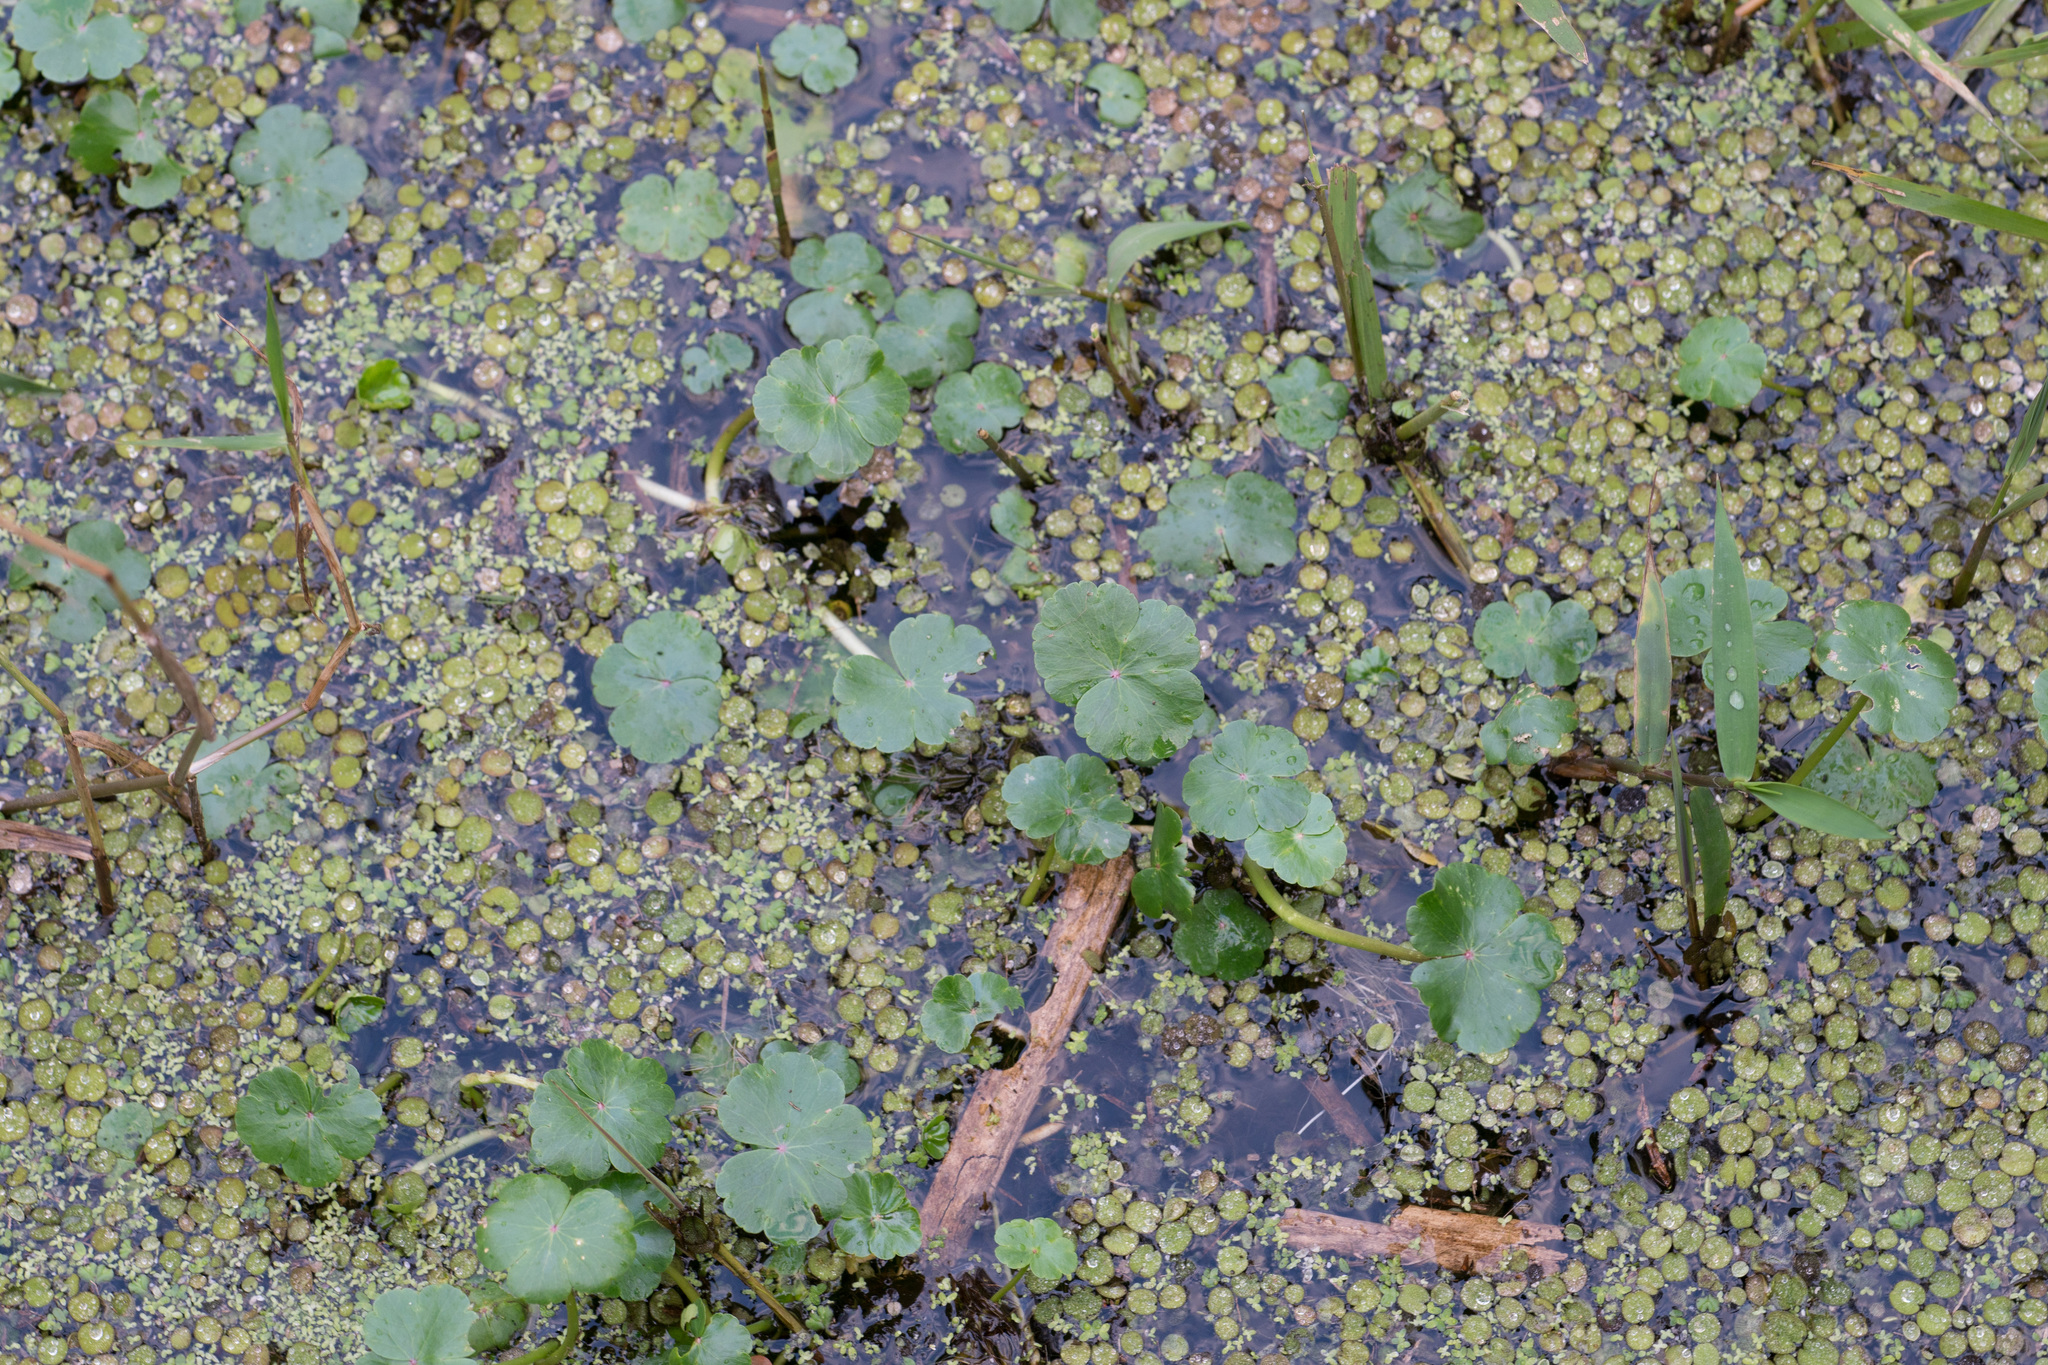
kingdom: Plantae
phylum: Tracheophyta
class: Magnoliopsida
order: Apiales
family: Araliaceae
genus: Hydrocotyle
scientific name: Hydrocotyle ranunculoides
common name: Floating pennywort
